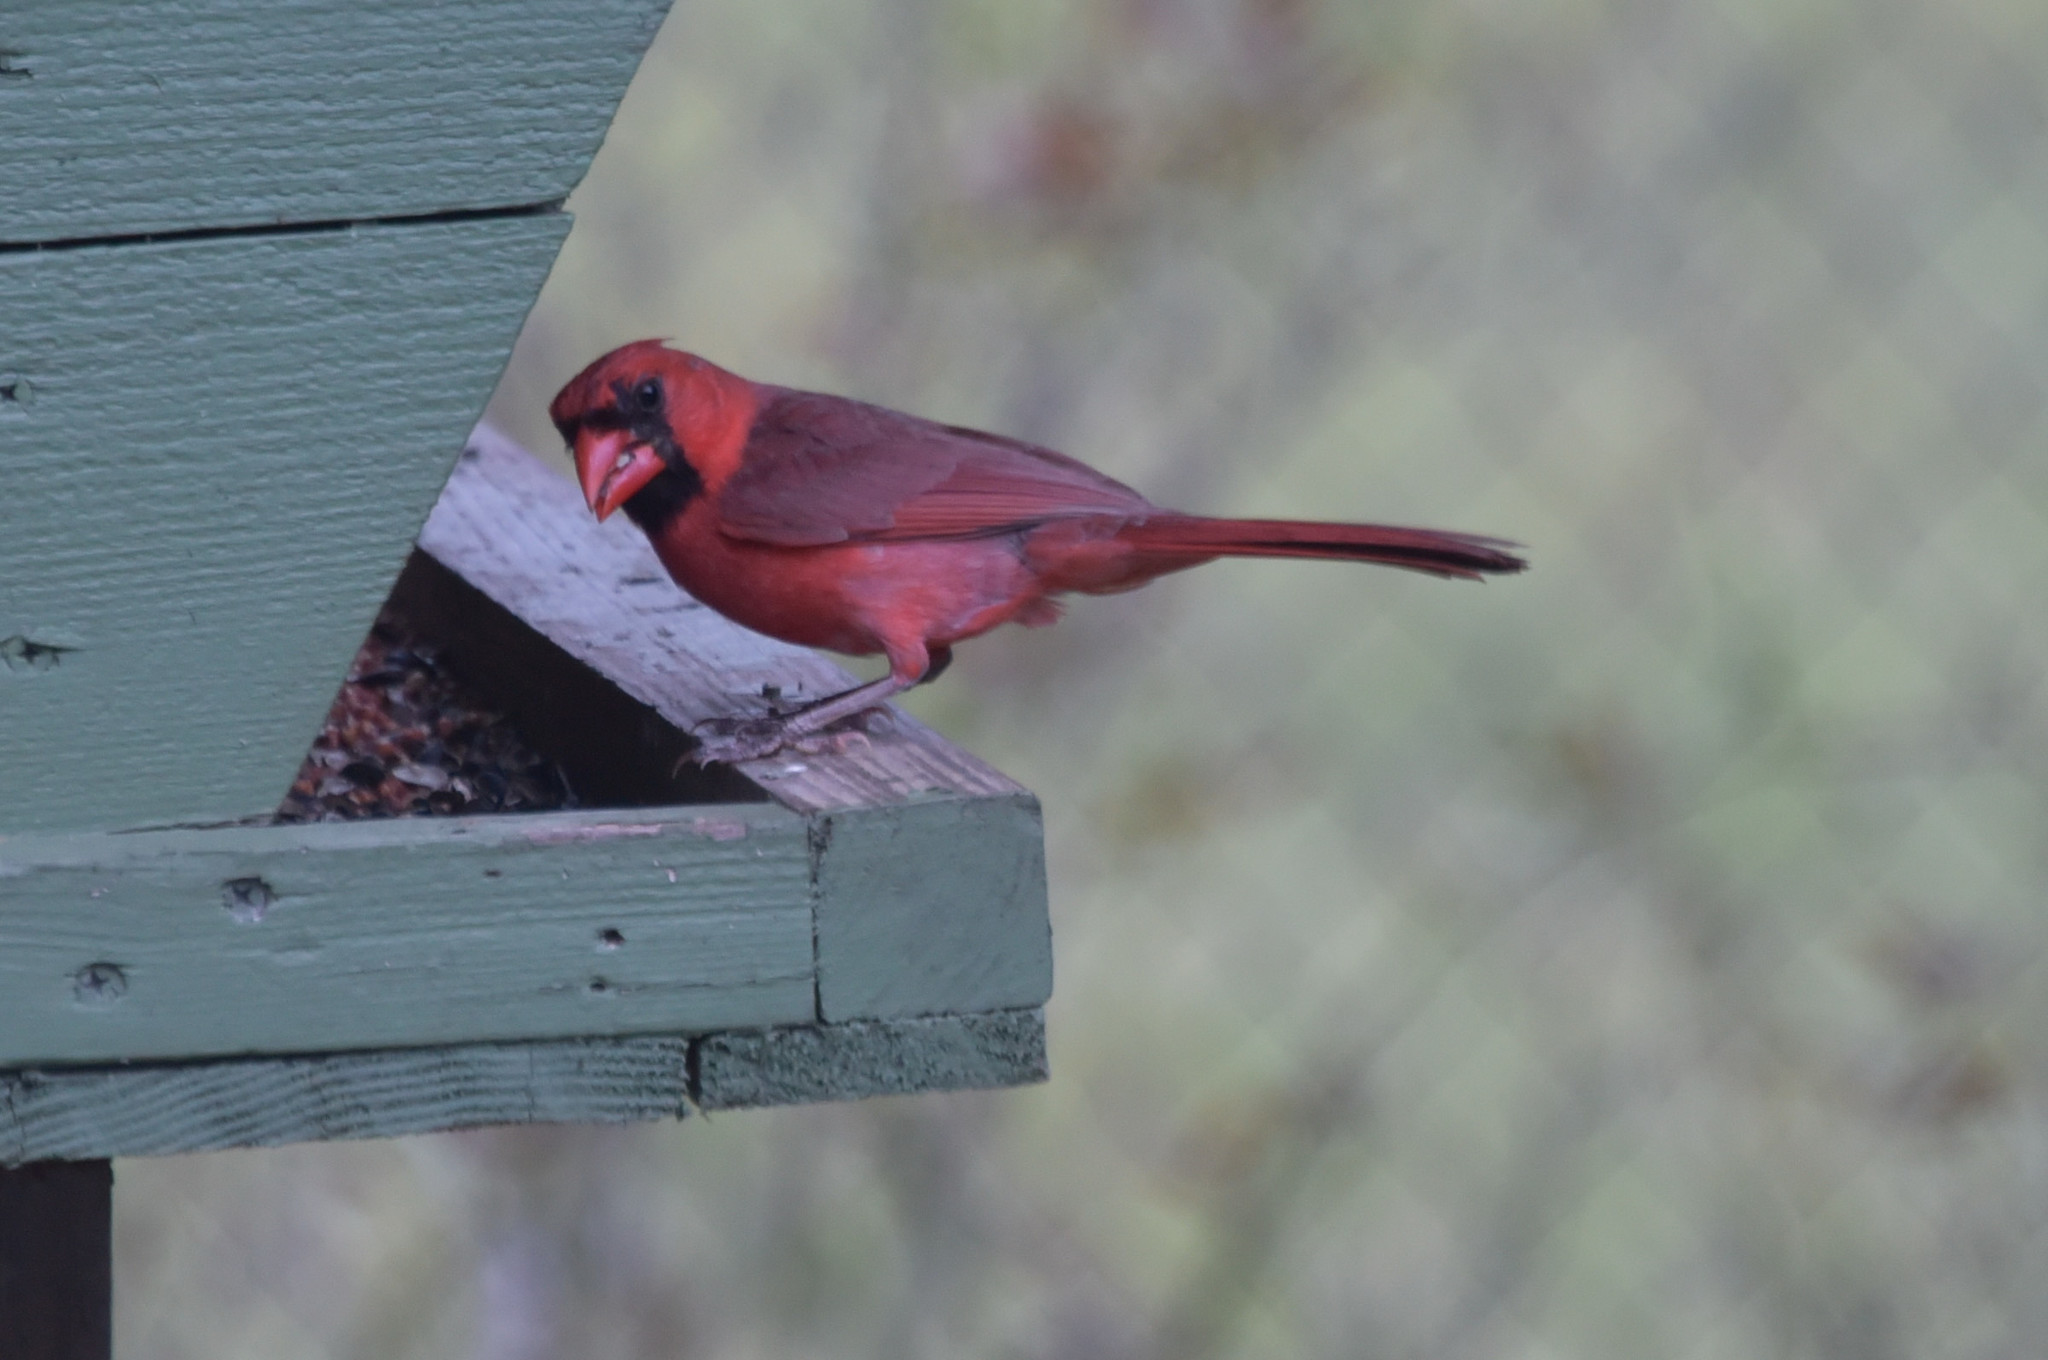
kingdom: Animalia
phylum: Chordata
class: Aves
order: Passeriformes
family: Cardinalidae
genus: Cardinalis
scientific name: Cardinalis cardinalis
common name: Northern cardinal
